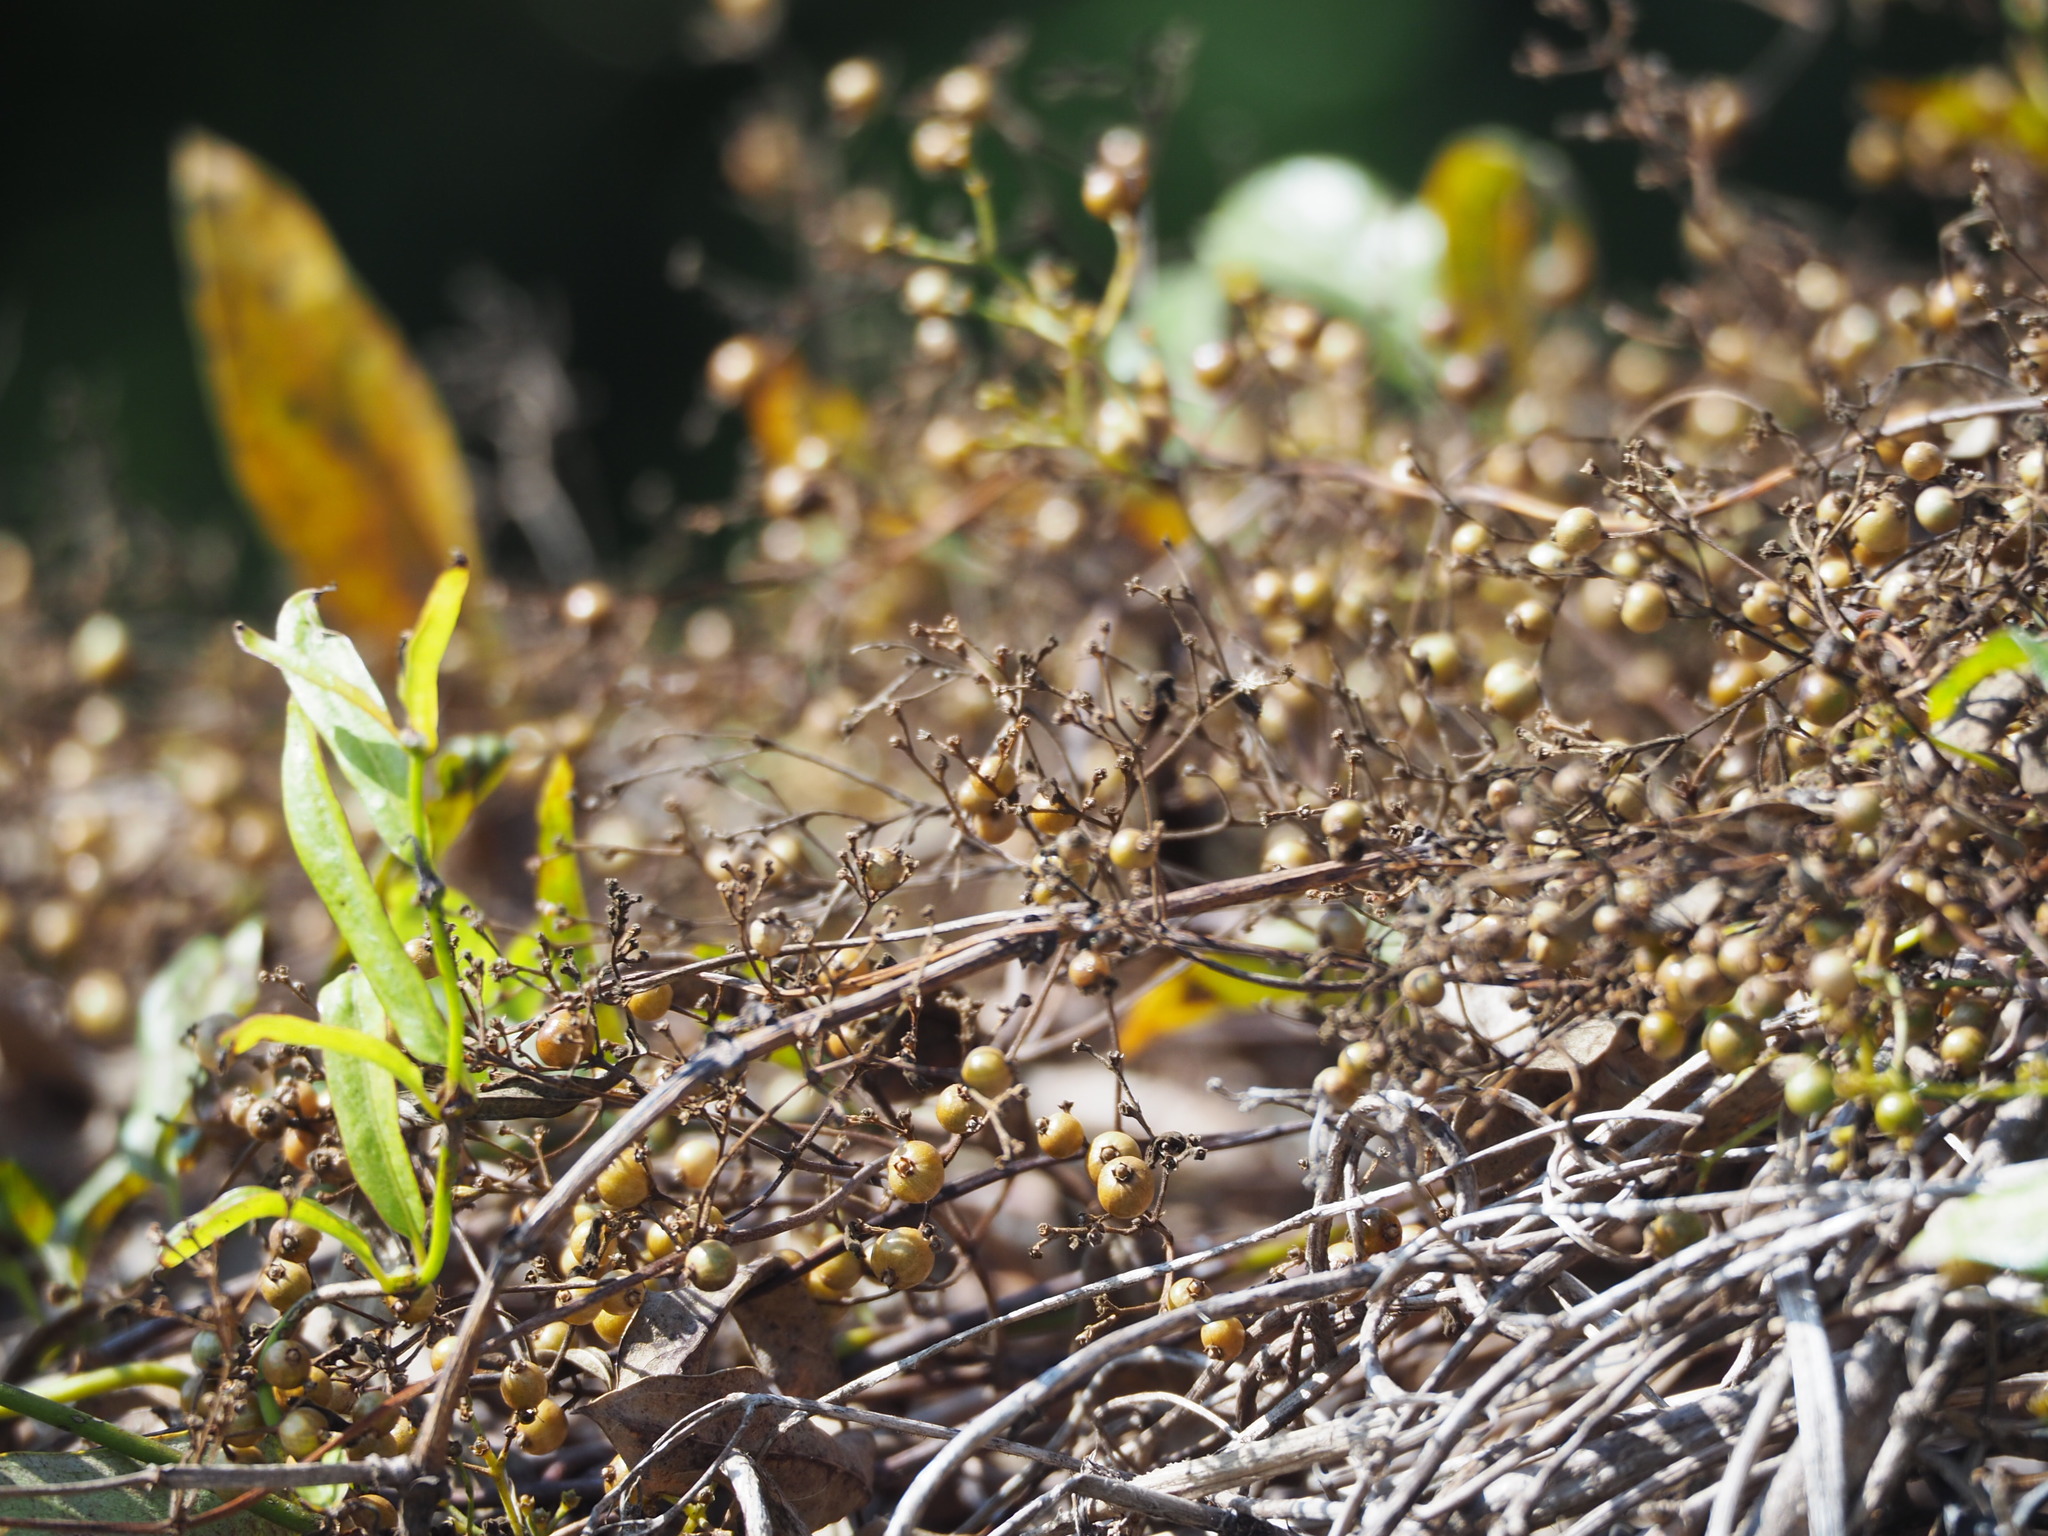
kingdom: Plantae
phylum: Tracheophyta
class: Magnoliopsida
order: Gentianales
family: Rubiaceae
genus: Paederia
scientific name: Paederia foetida
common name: Stinkvine
